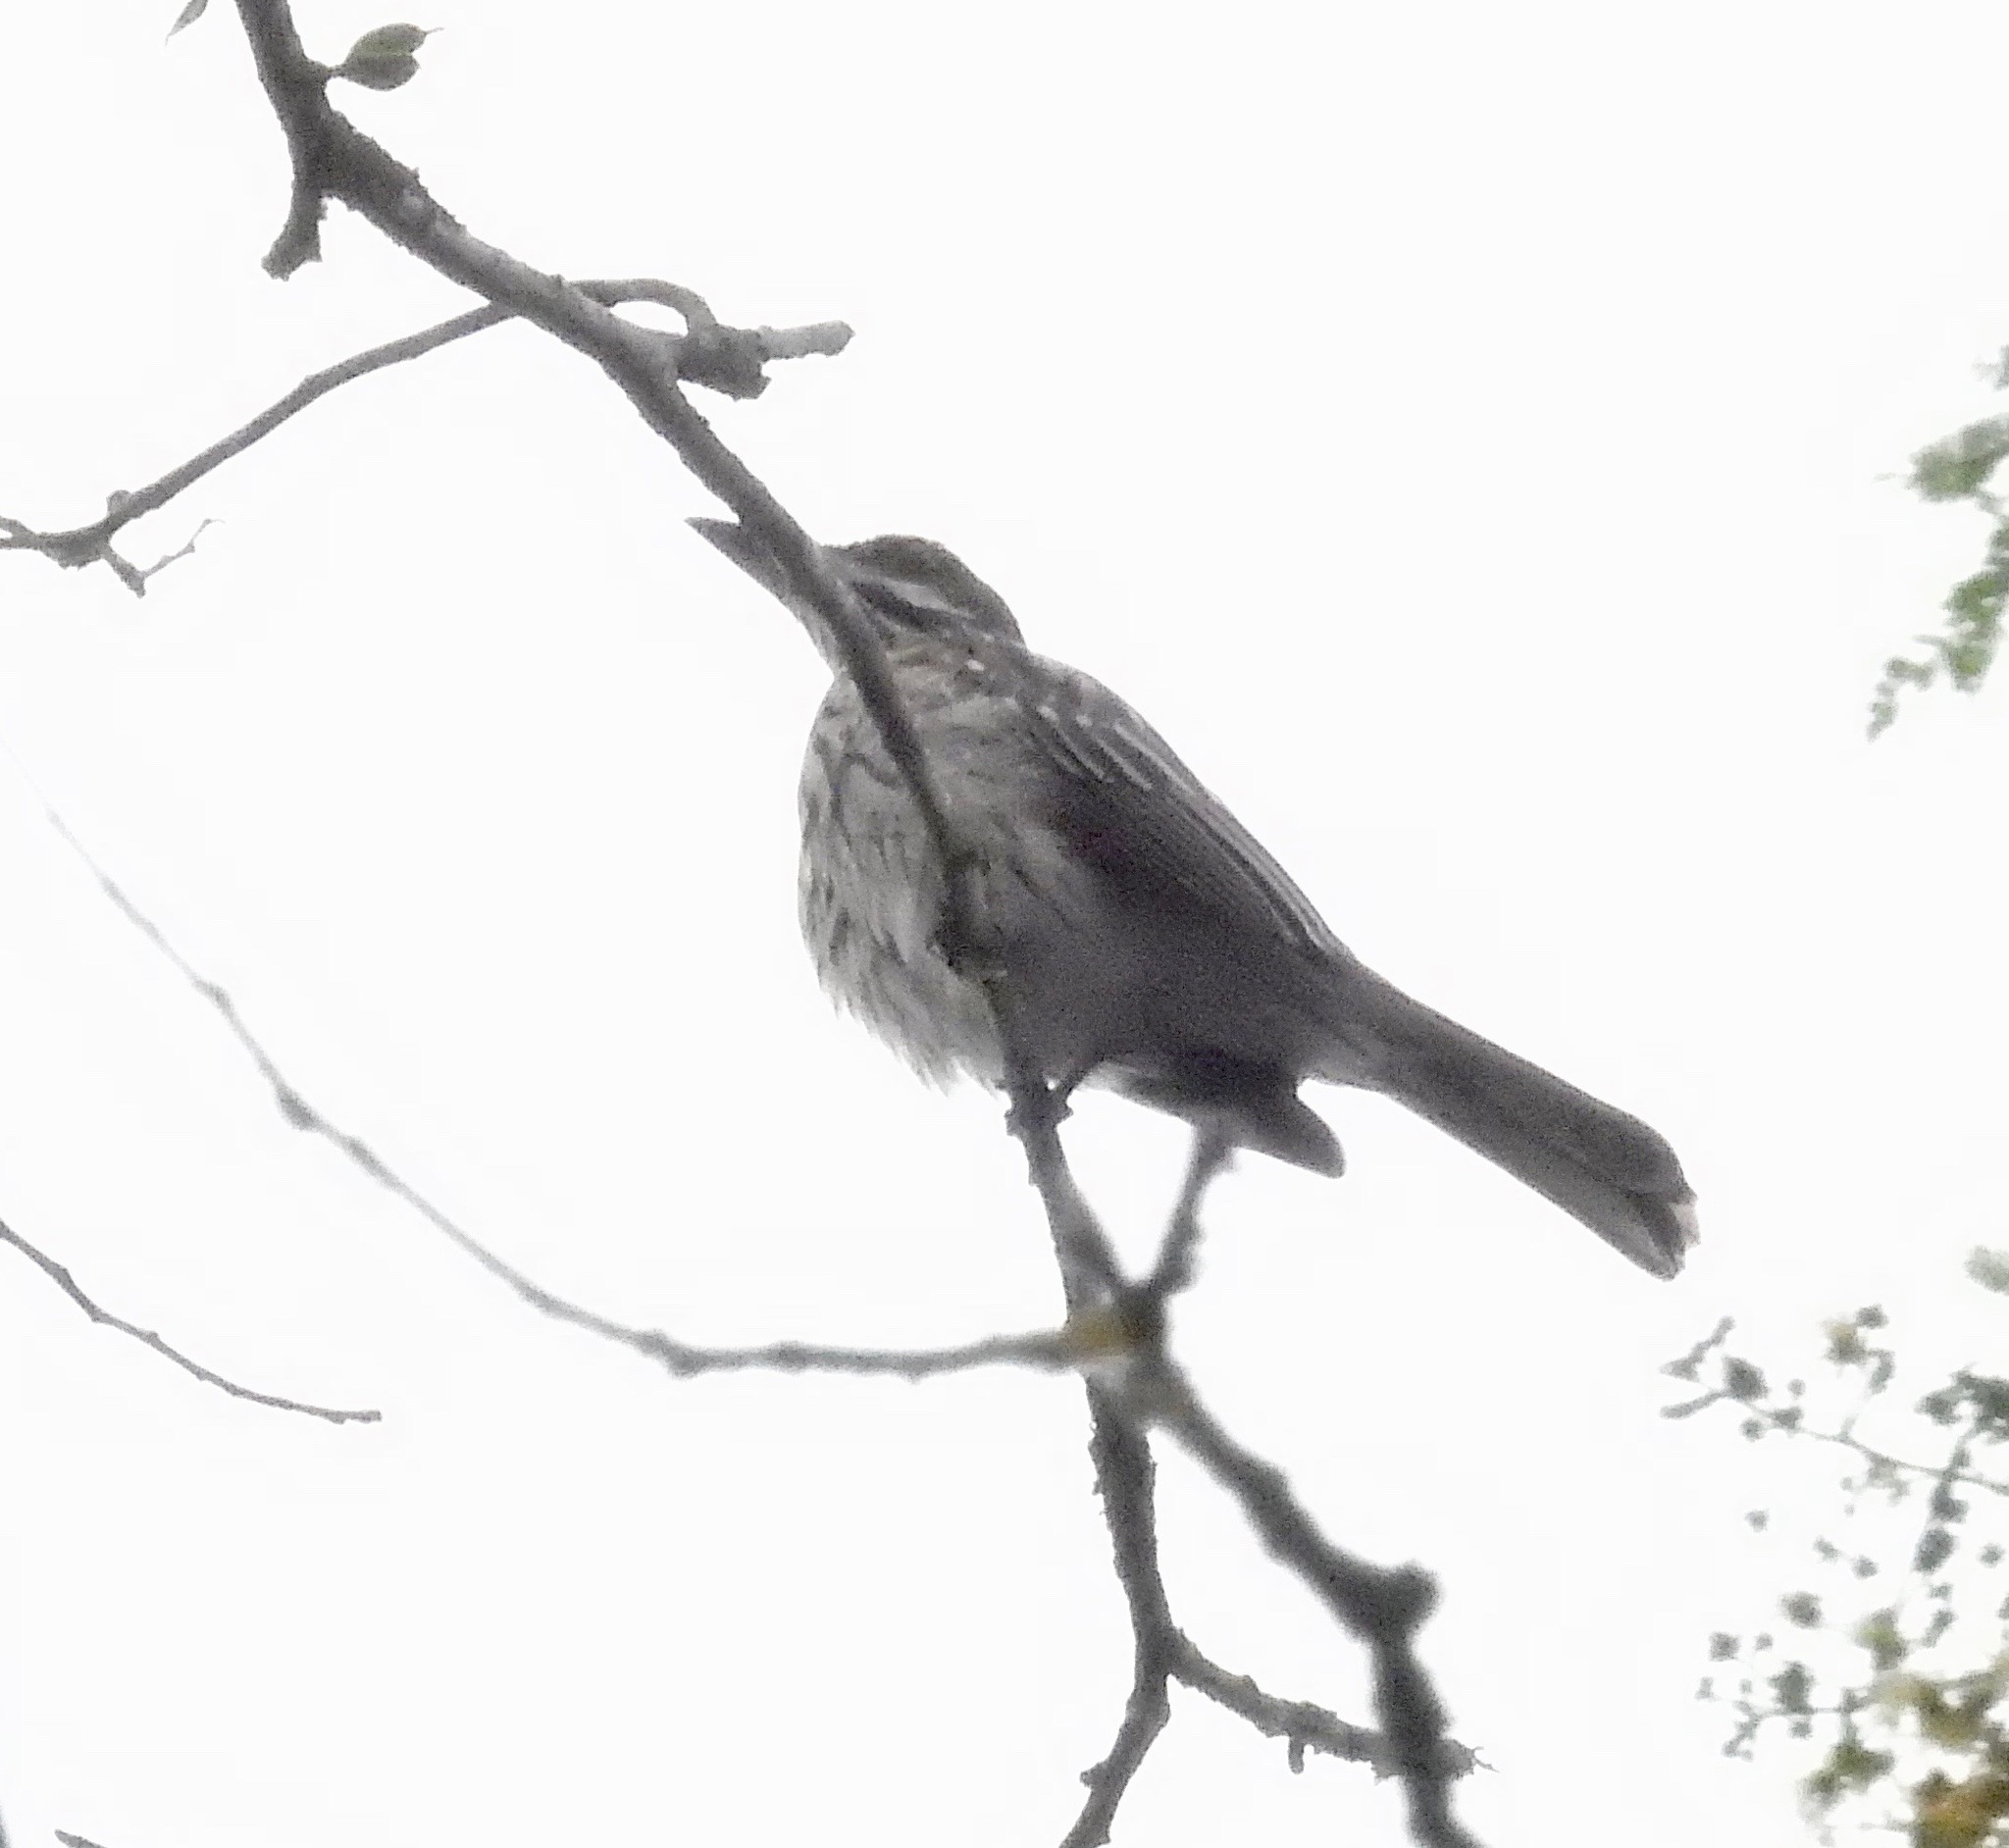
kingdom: Animalia
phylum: Chordata
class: Aves
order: Passeriformes
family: Tyrannidae
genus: Myiodynastes
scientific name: Myiodynastes maculatus
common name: Streaked flycatcher
